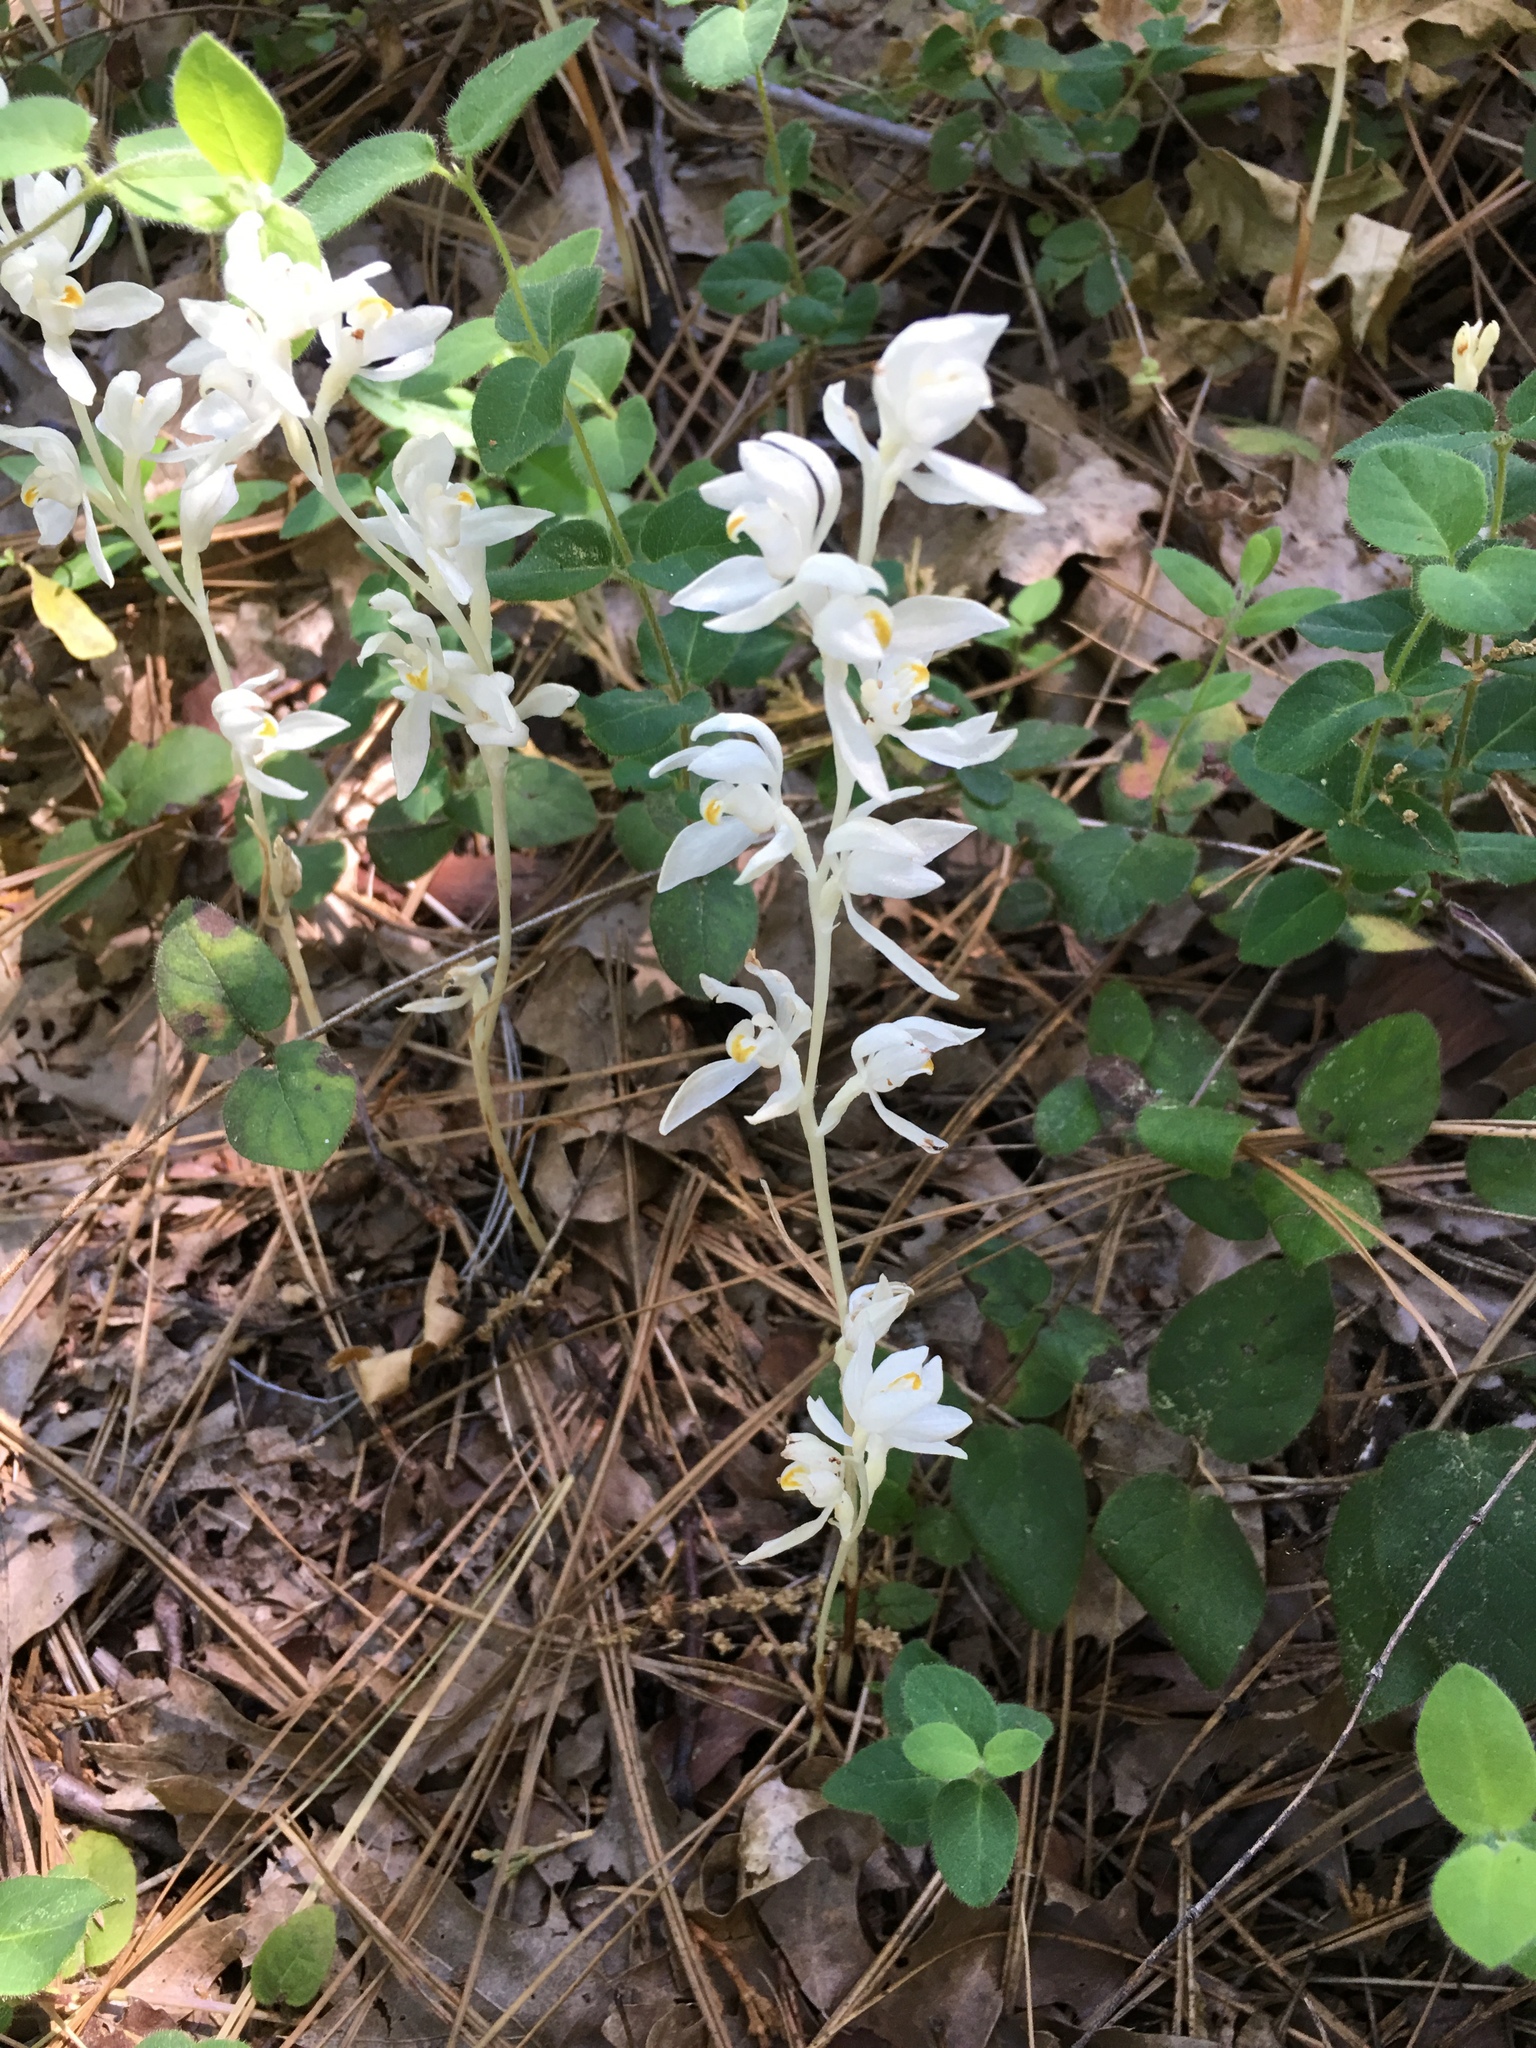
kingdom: Plantae
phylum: Tracheophyta
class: Liliopsida
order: Asparagales
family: Orchidaceae
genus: Cephalanthera
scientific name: Cephalanthera austiniae
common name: Phantom orchid
